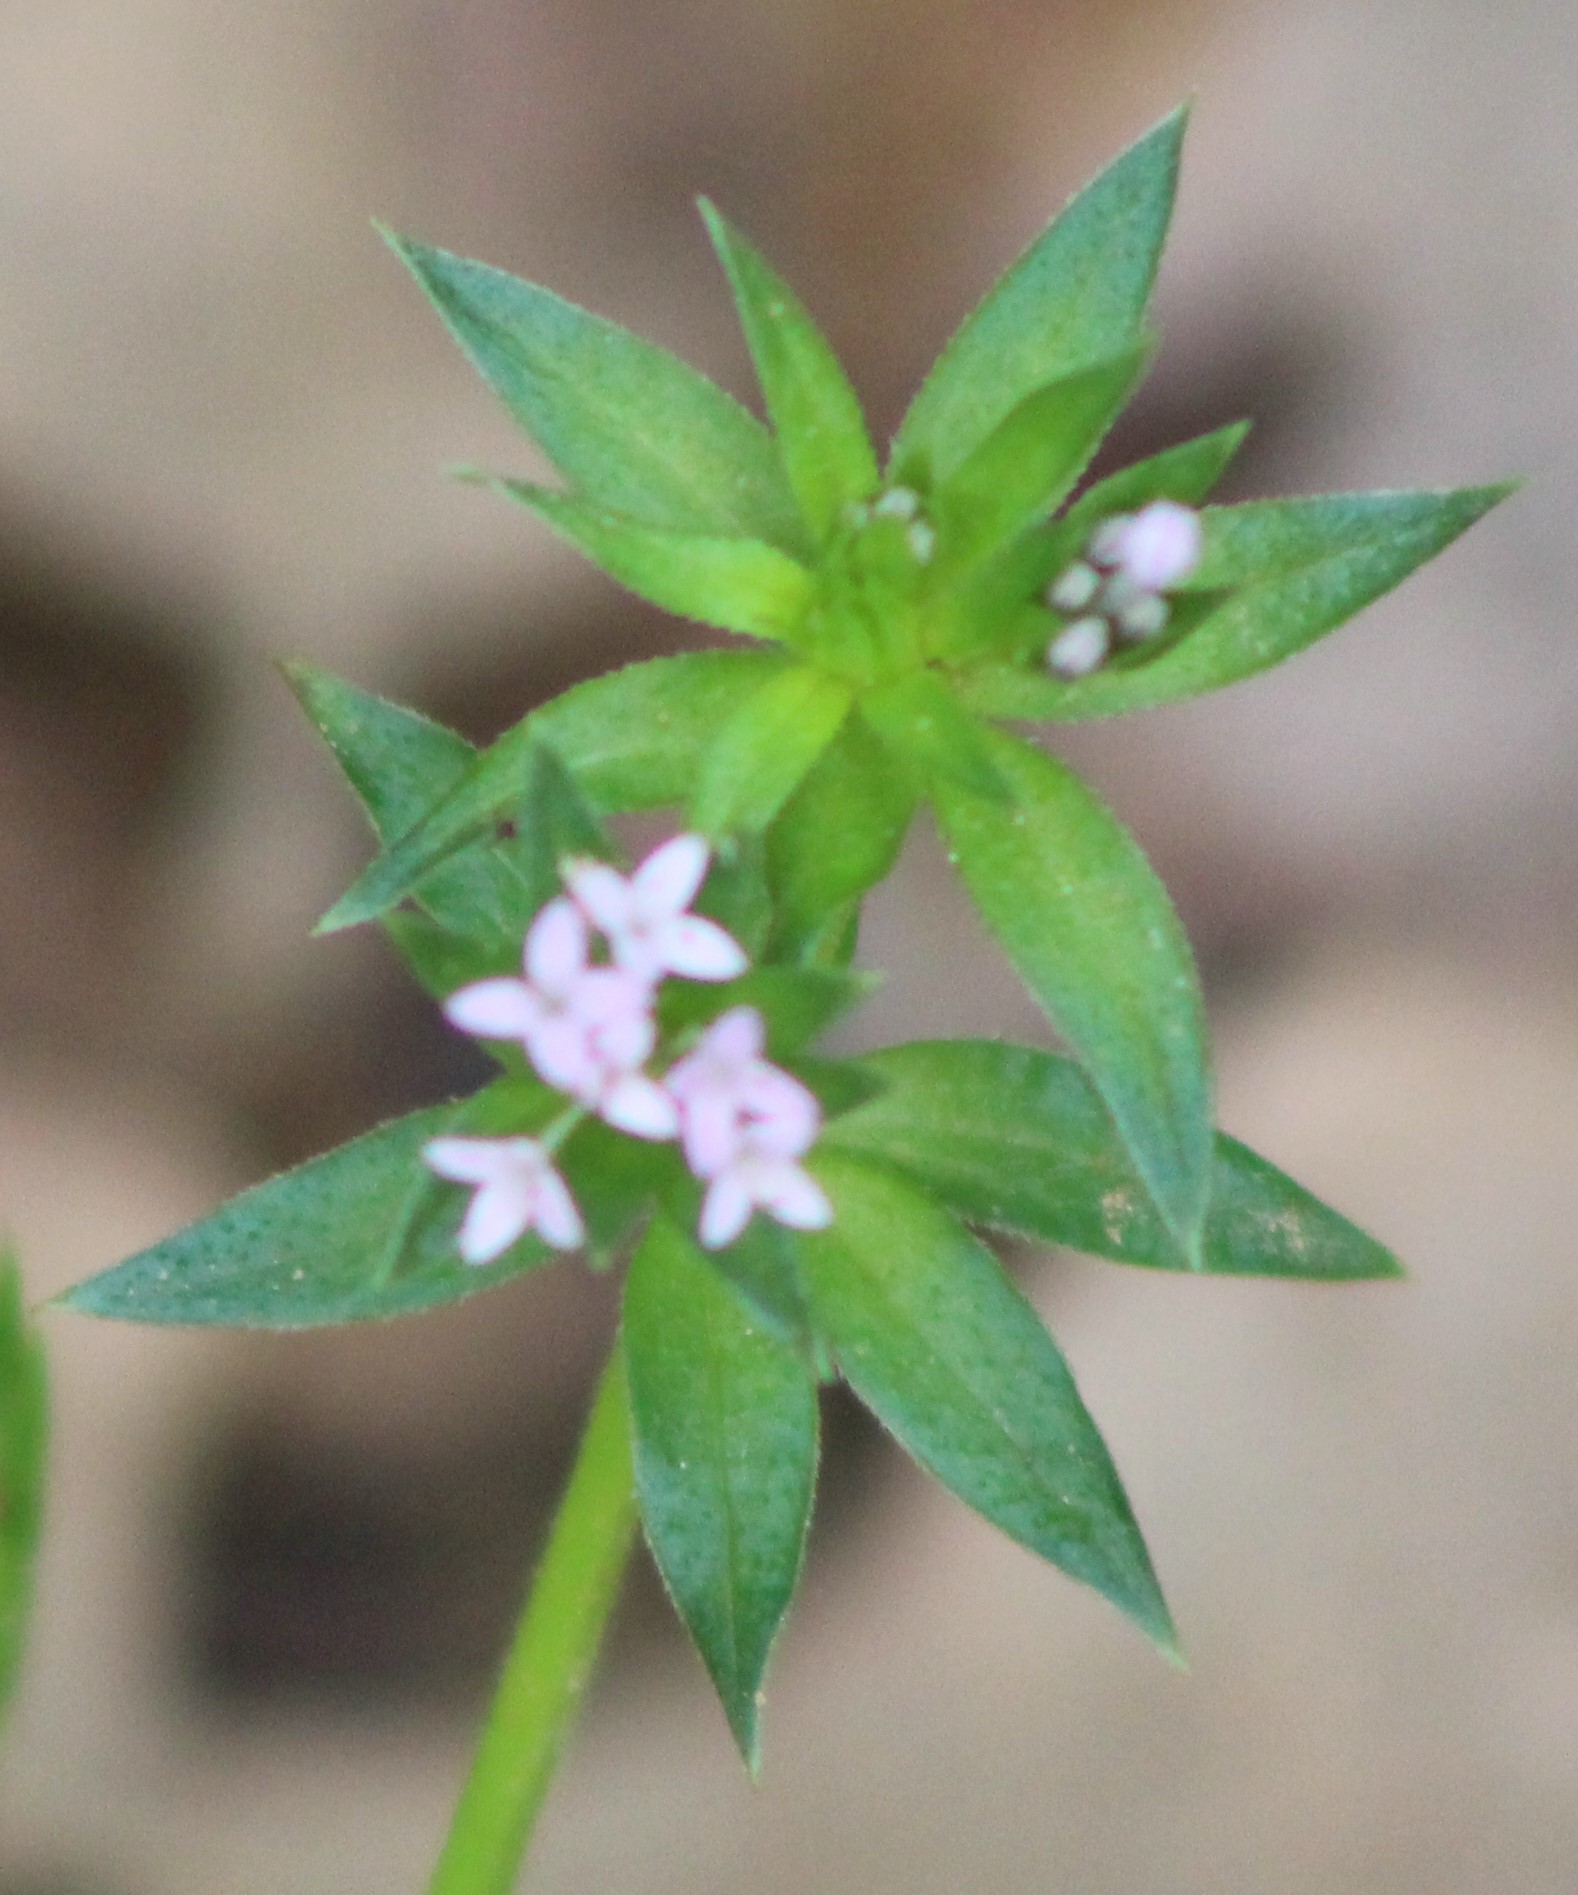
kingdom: Plantae
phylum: Tracheophyta
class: Magnoliopsida
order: Gentianales
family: Rubiaceae
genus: Sherardia
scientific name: Sherardia arvensis
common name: Field madder
